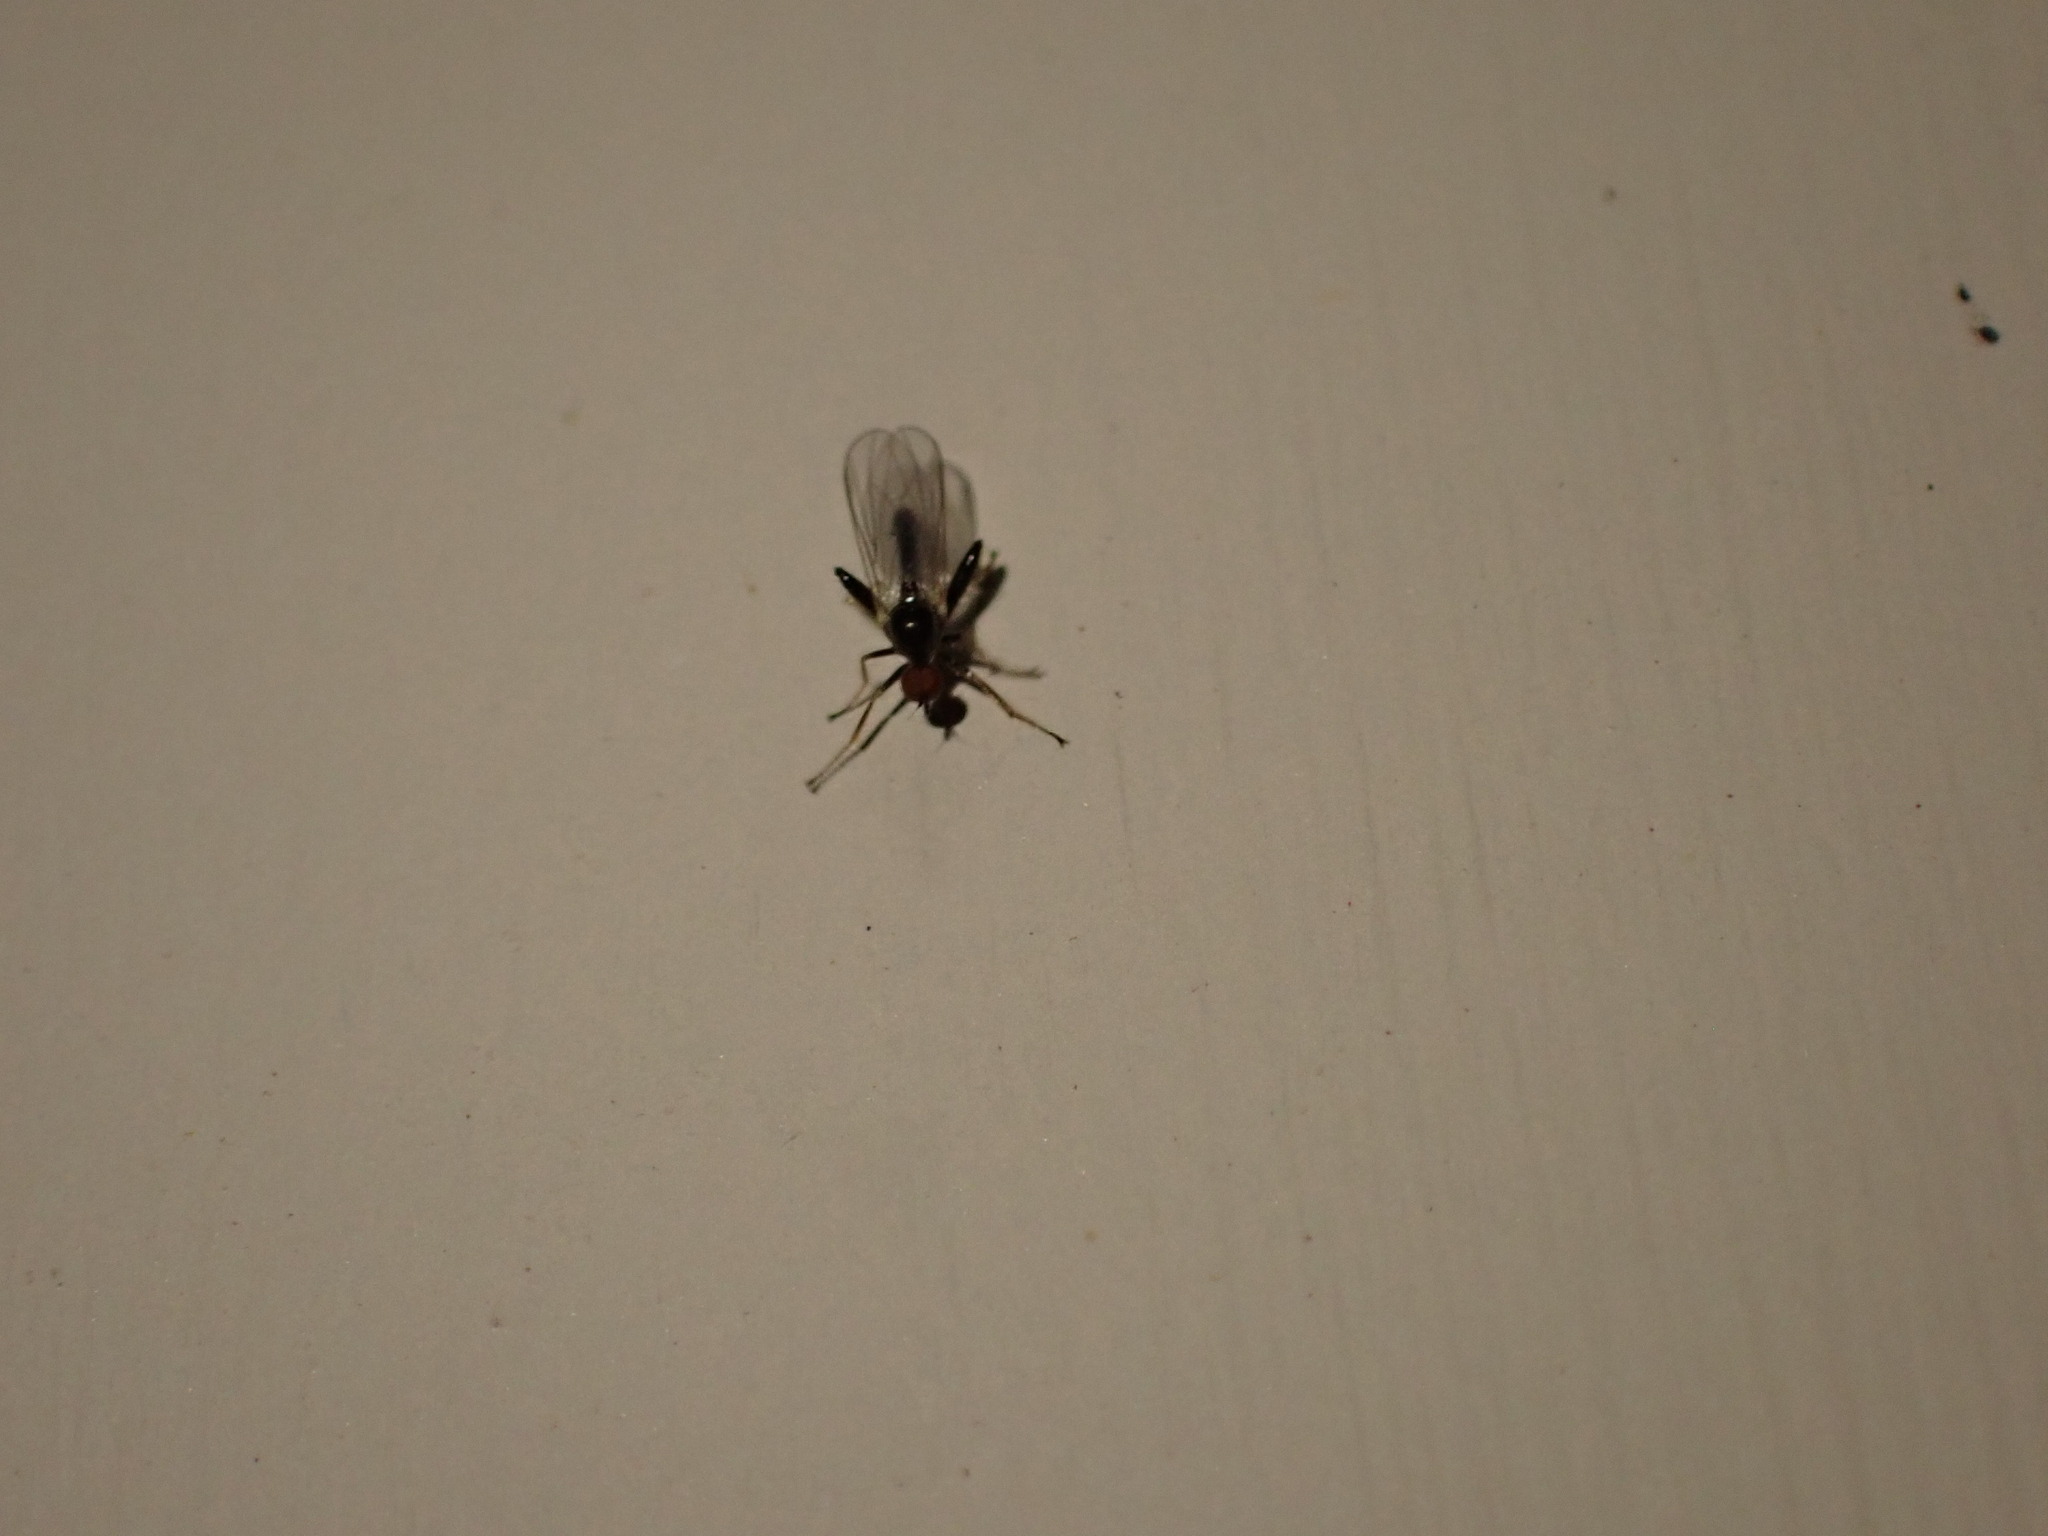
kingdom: Animalia
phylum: Arthropoda
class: Insecta
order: Diptera
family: Hybotidae
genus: Hybos
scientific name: Hybos reversus
